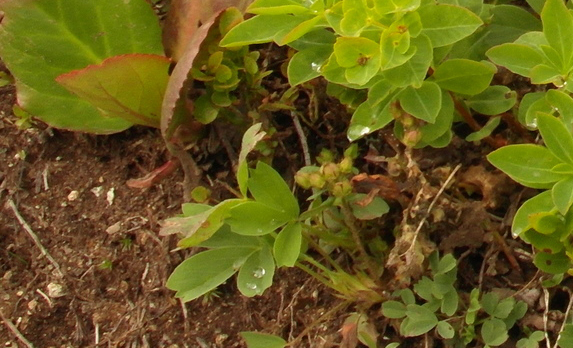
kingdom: Plantae
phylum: Tracheophyta
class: Magnoliopsida
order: Rosales
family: Rosaceae
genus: Sibbaldia
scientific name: Sibbaldia procumbens
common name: Creeping sibbaldia
